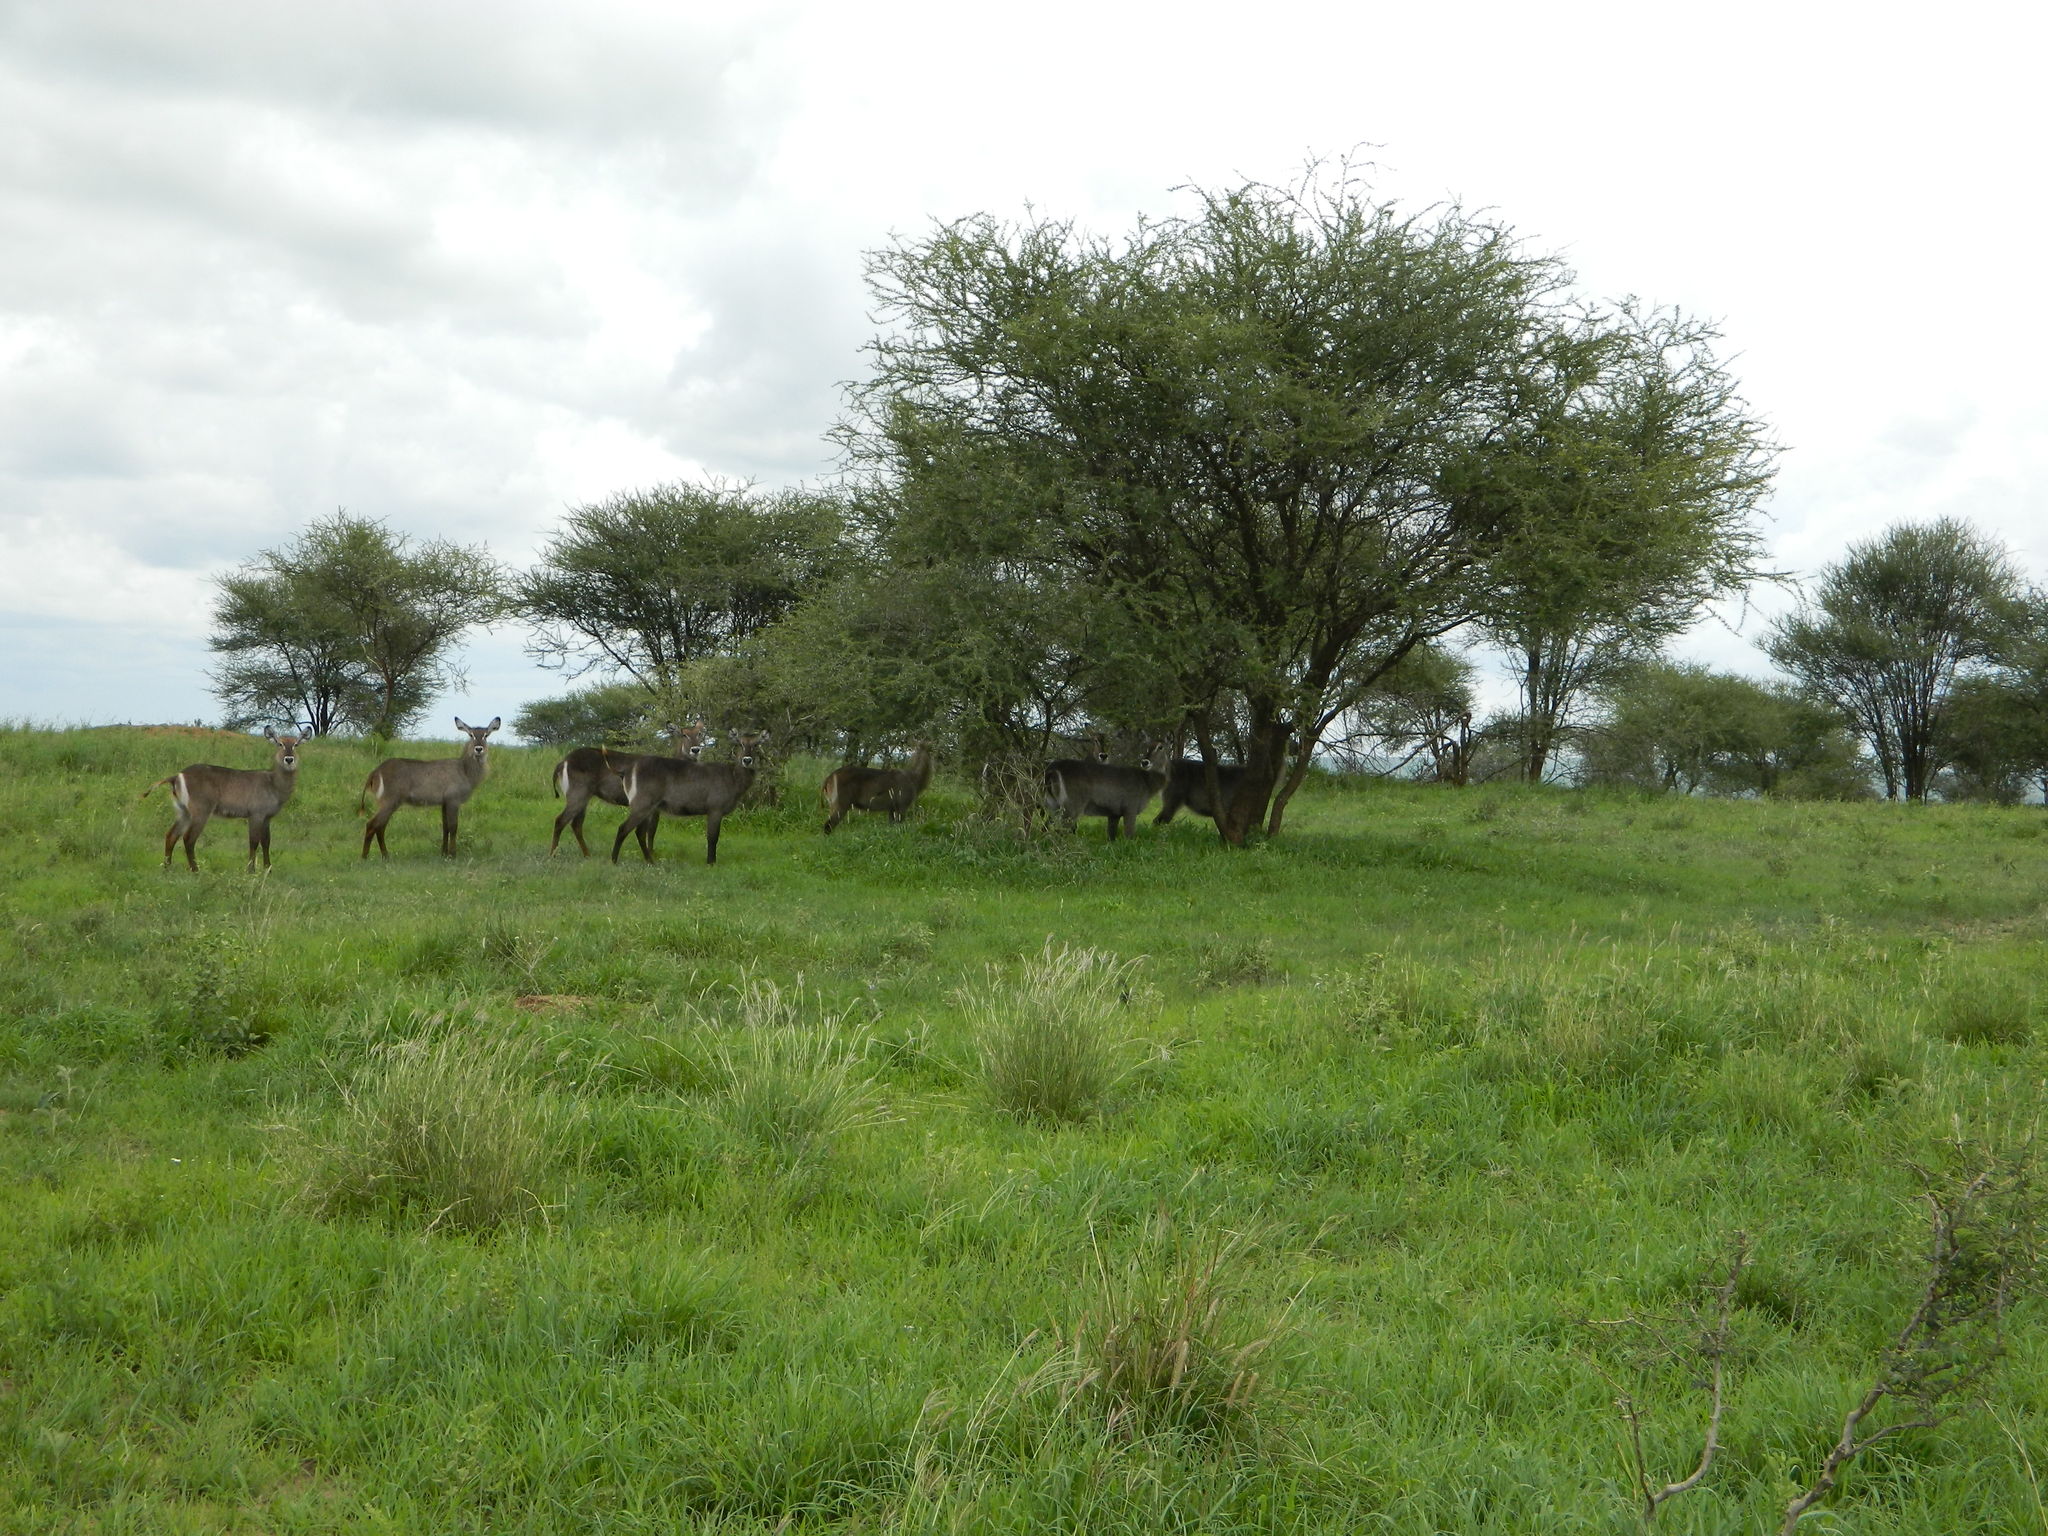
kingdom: Animalia
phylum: Chordata
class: Mammalia
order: Artiodactyla
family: Bovidae
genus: Kobus
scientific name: Kobus ellipsiprymnus
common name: Waterbuck
